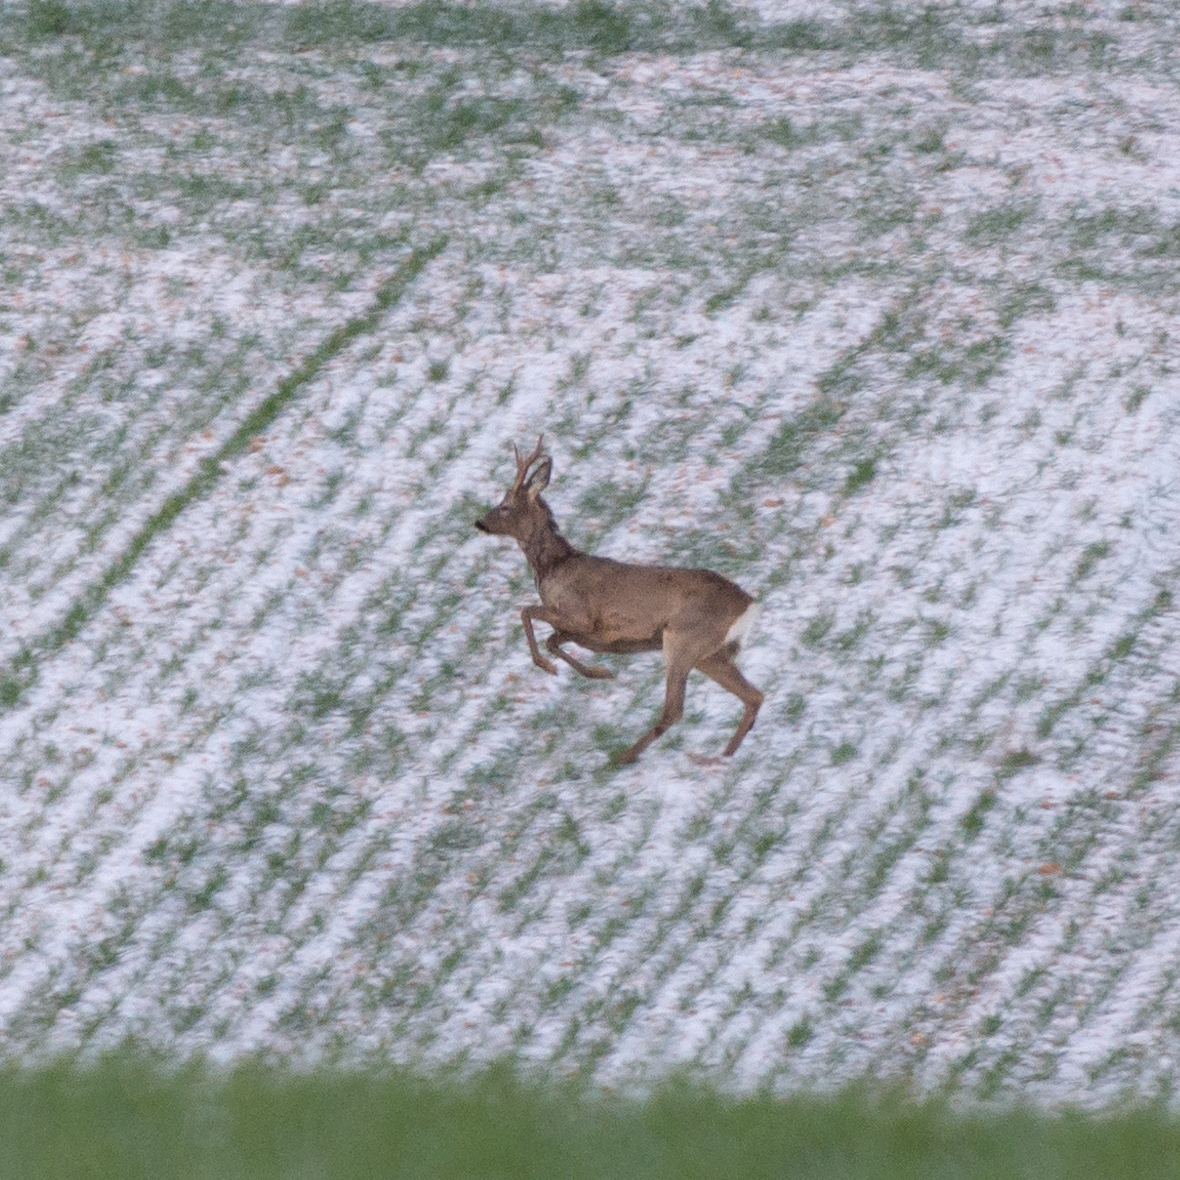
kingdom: Animalia
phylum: Chordata
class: Mammalia
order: Artiodactyla
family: Cervidae
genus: Capreolus
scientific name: Capreolus capreolus
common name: Western roe deer
